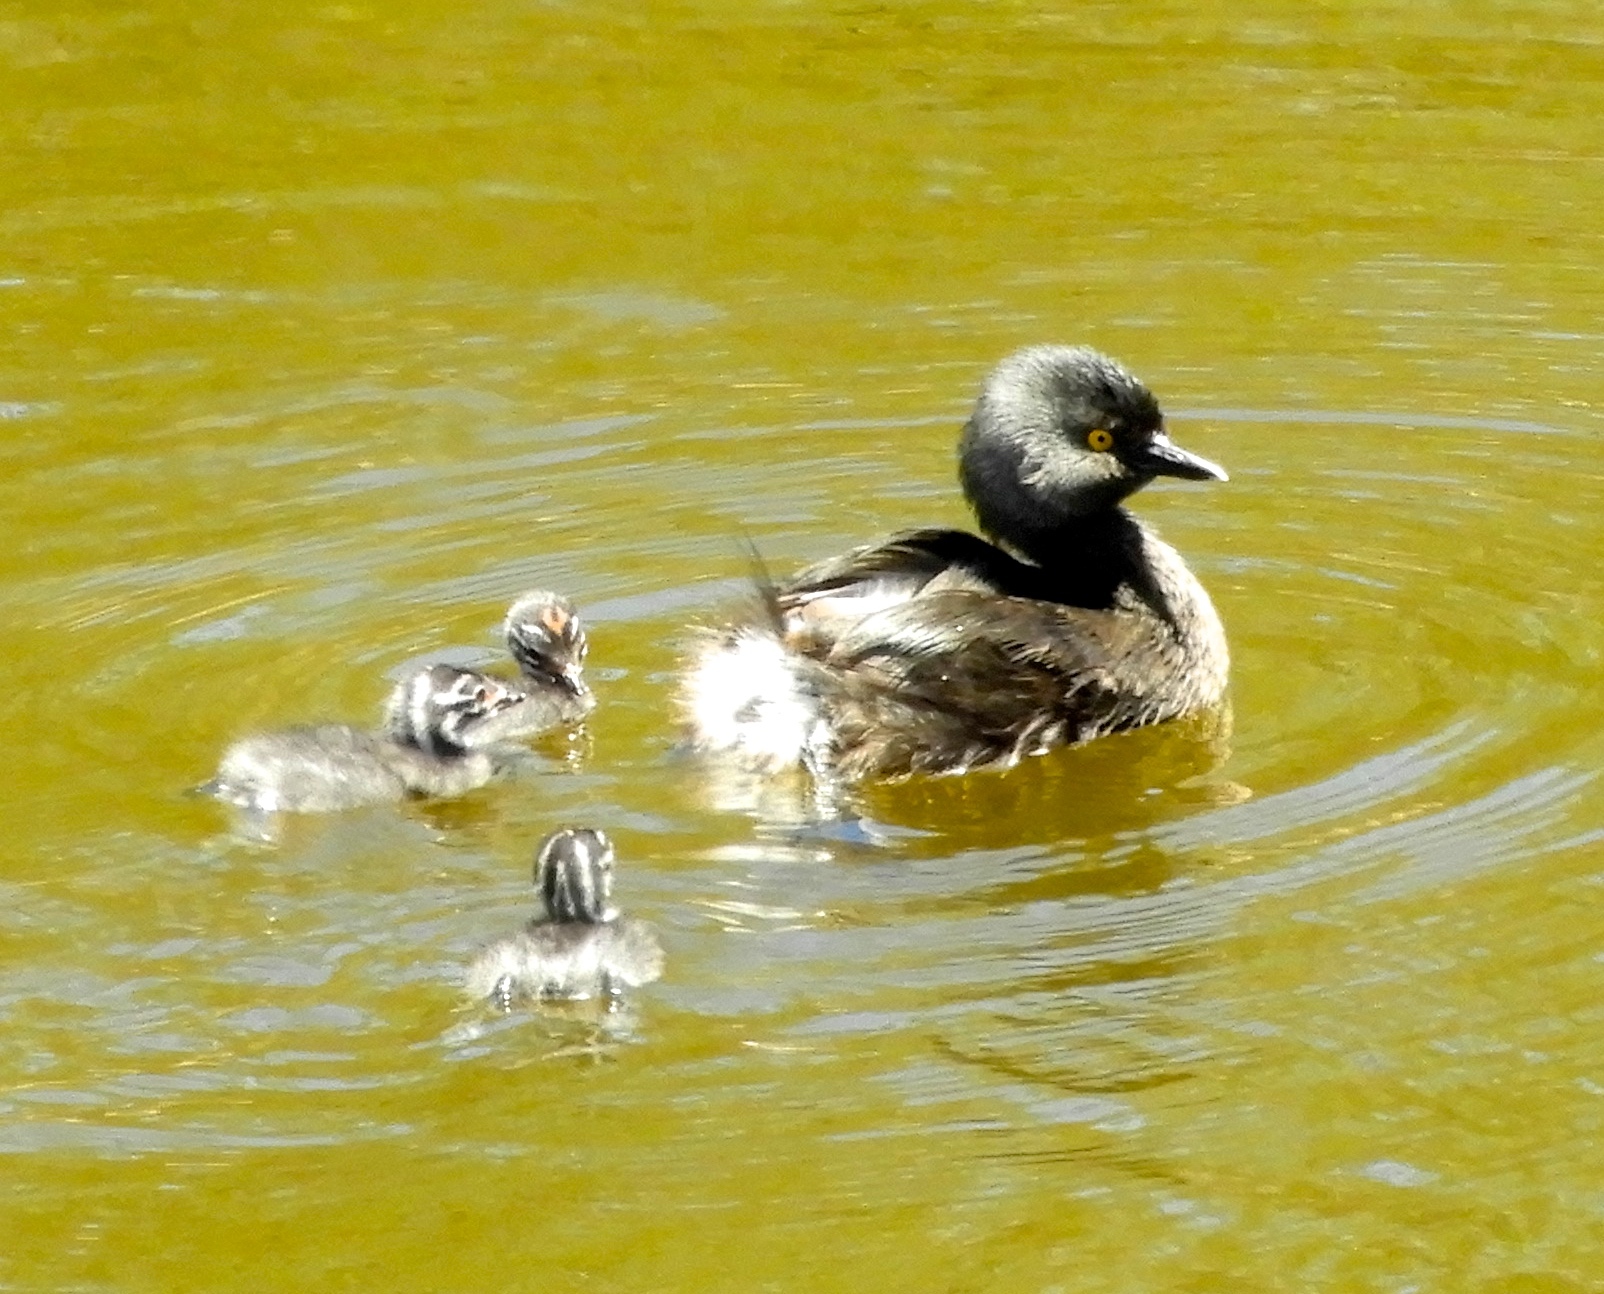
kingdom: Animalia
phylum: Chordata
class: Aves
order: Podicipediformes
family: Podicipedidae
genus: Tachybaptus
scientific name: Tachybaptus dominicus
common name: Least grebe
